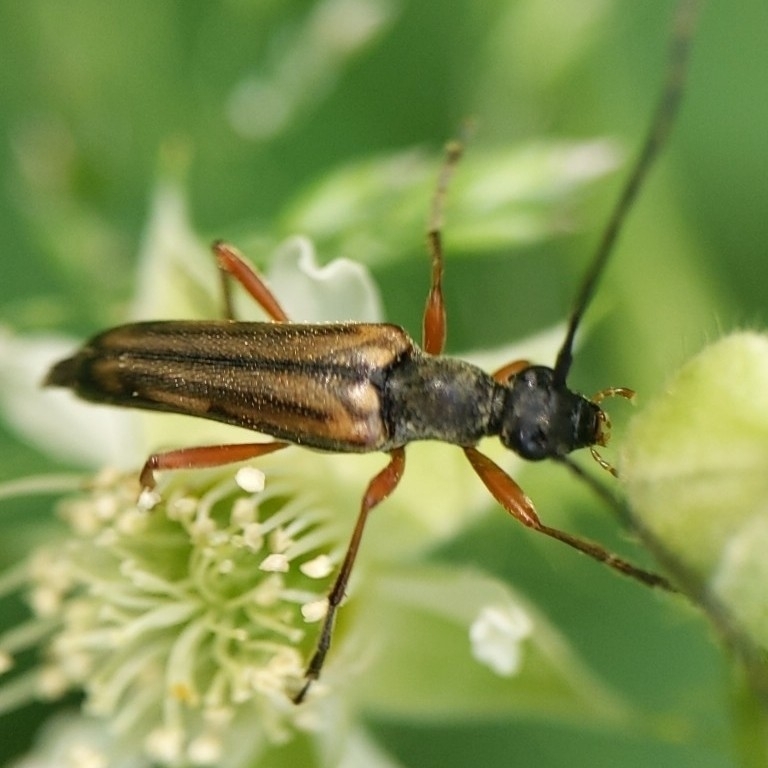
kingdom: Animalia
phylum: Arthropoda
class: Insecta
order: Coleoptera
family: Cerambycidae
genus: Analeptura
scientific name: Analeptura lineola
